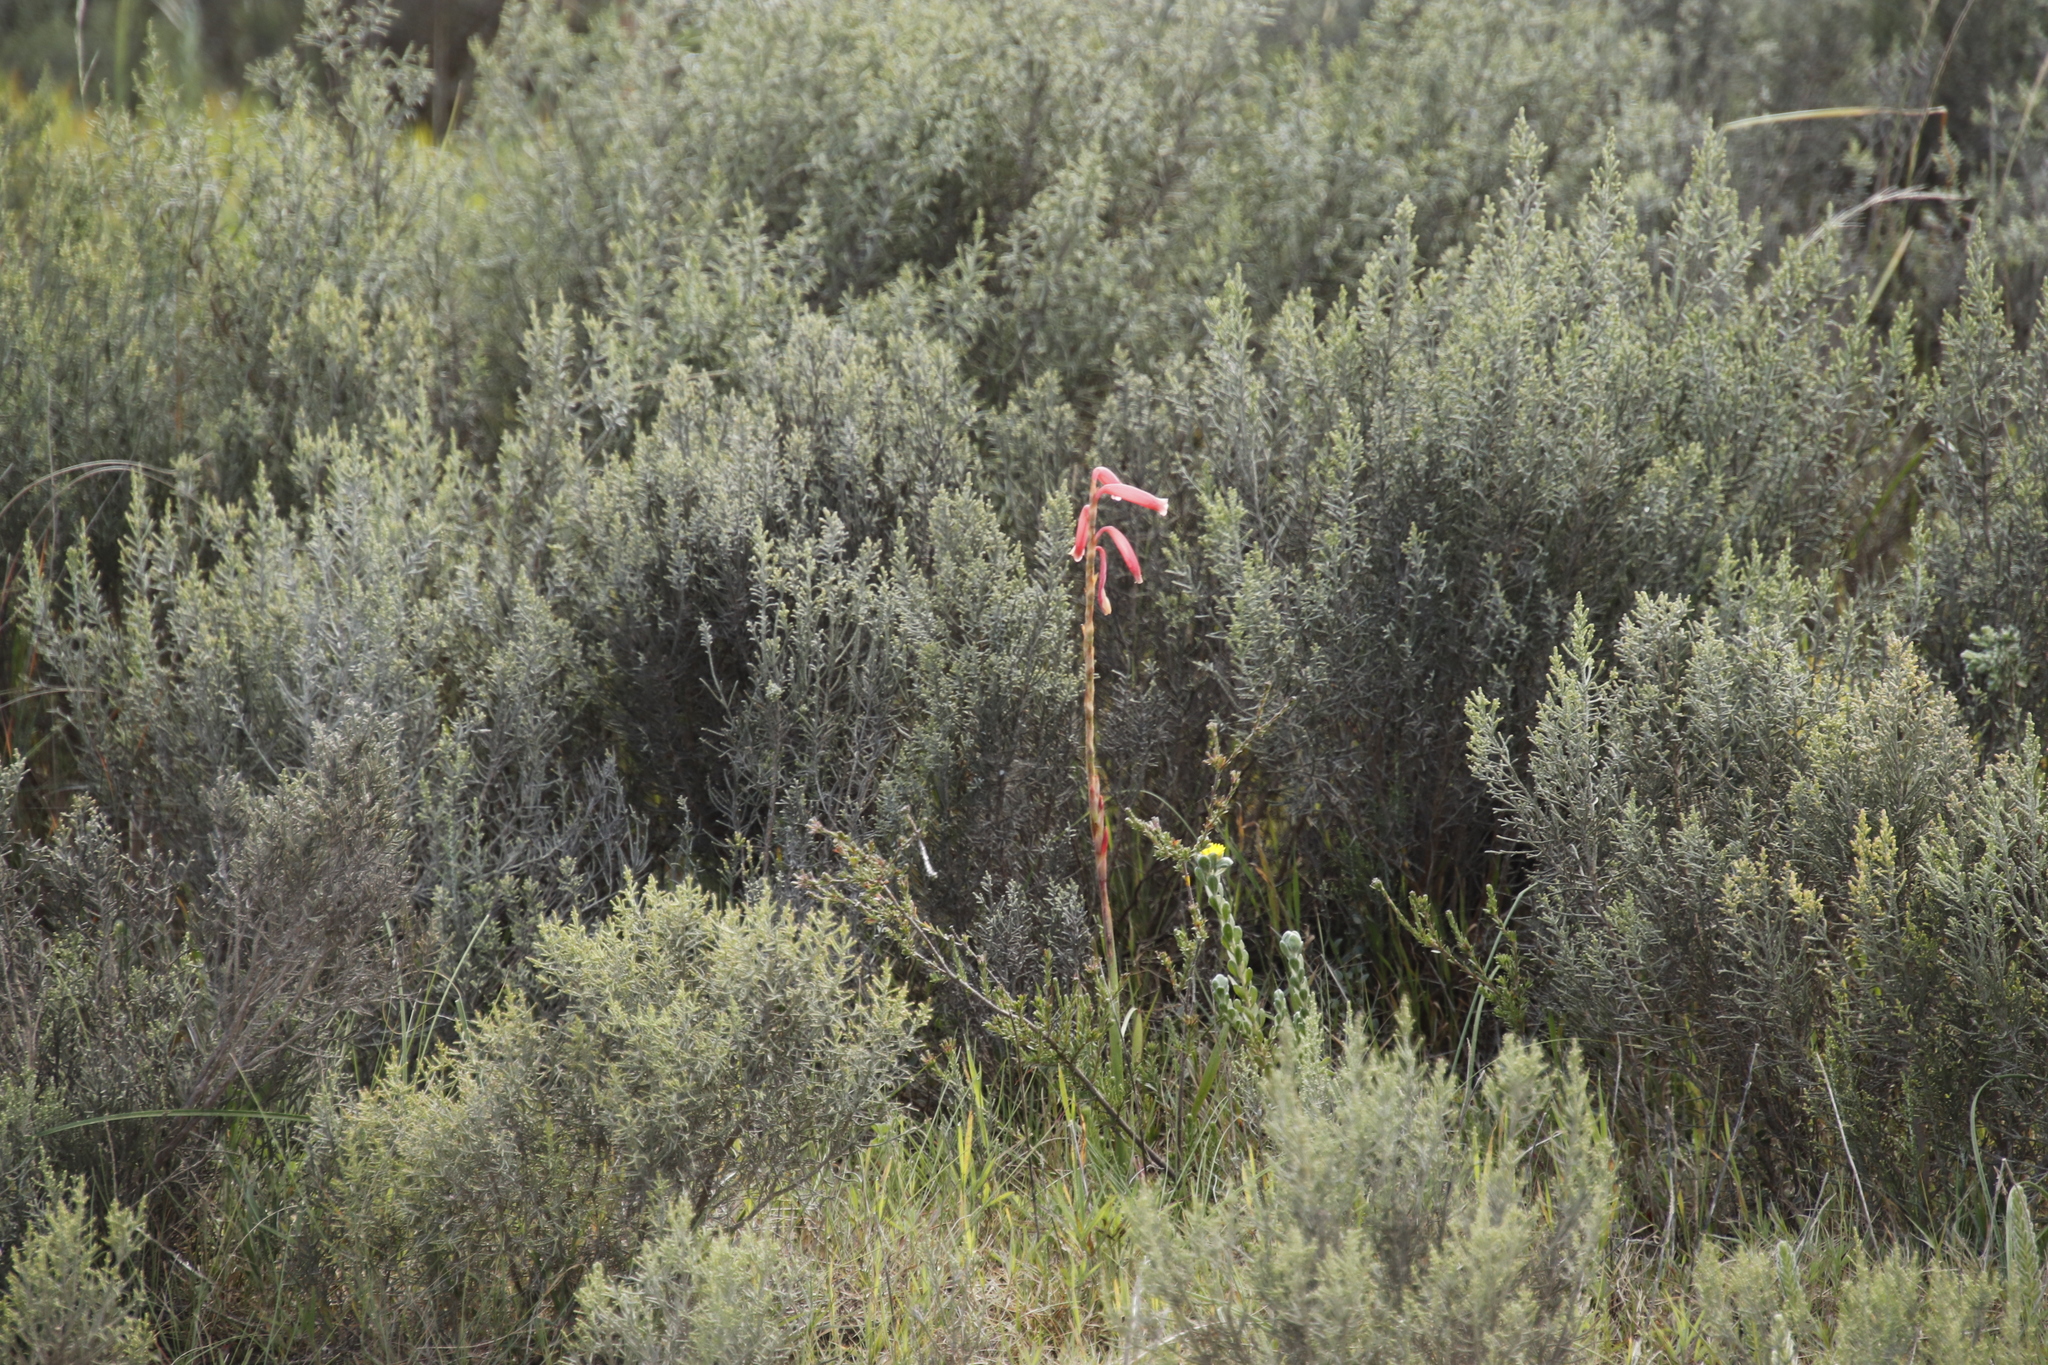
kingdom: Plantae
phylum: Tracheophyta
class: Liliopsida
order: Asparagales
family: Iridaceae
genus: Watsonia
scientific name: Watsonia aletroides
